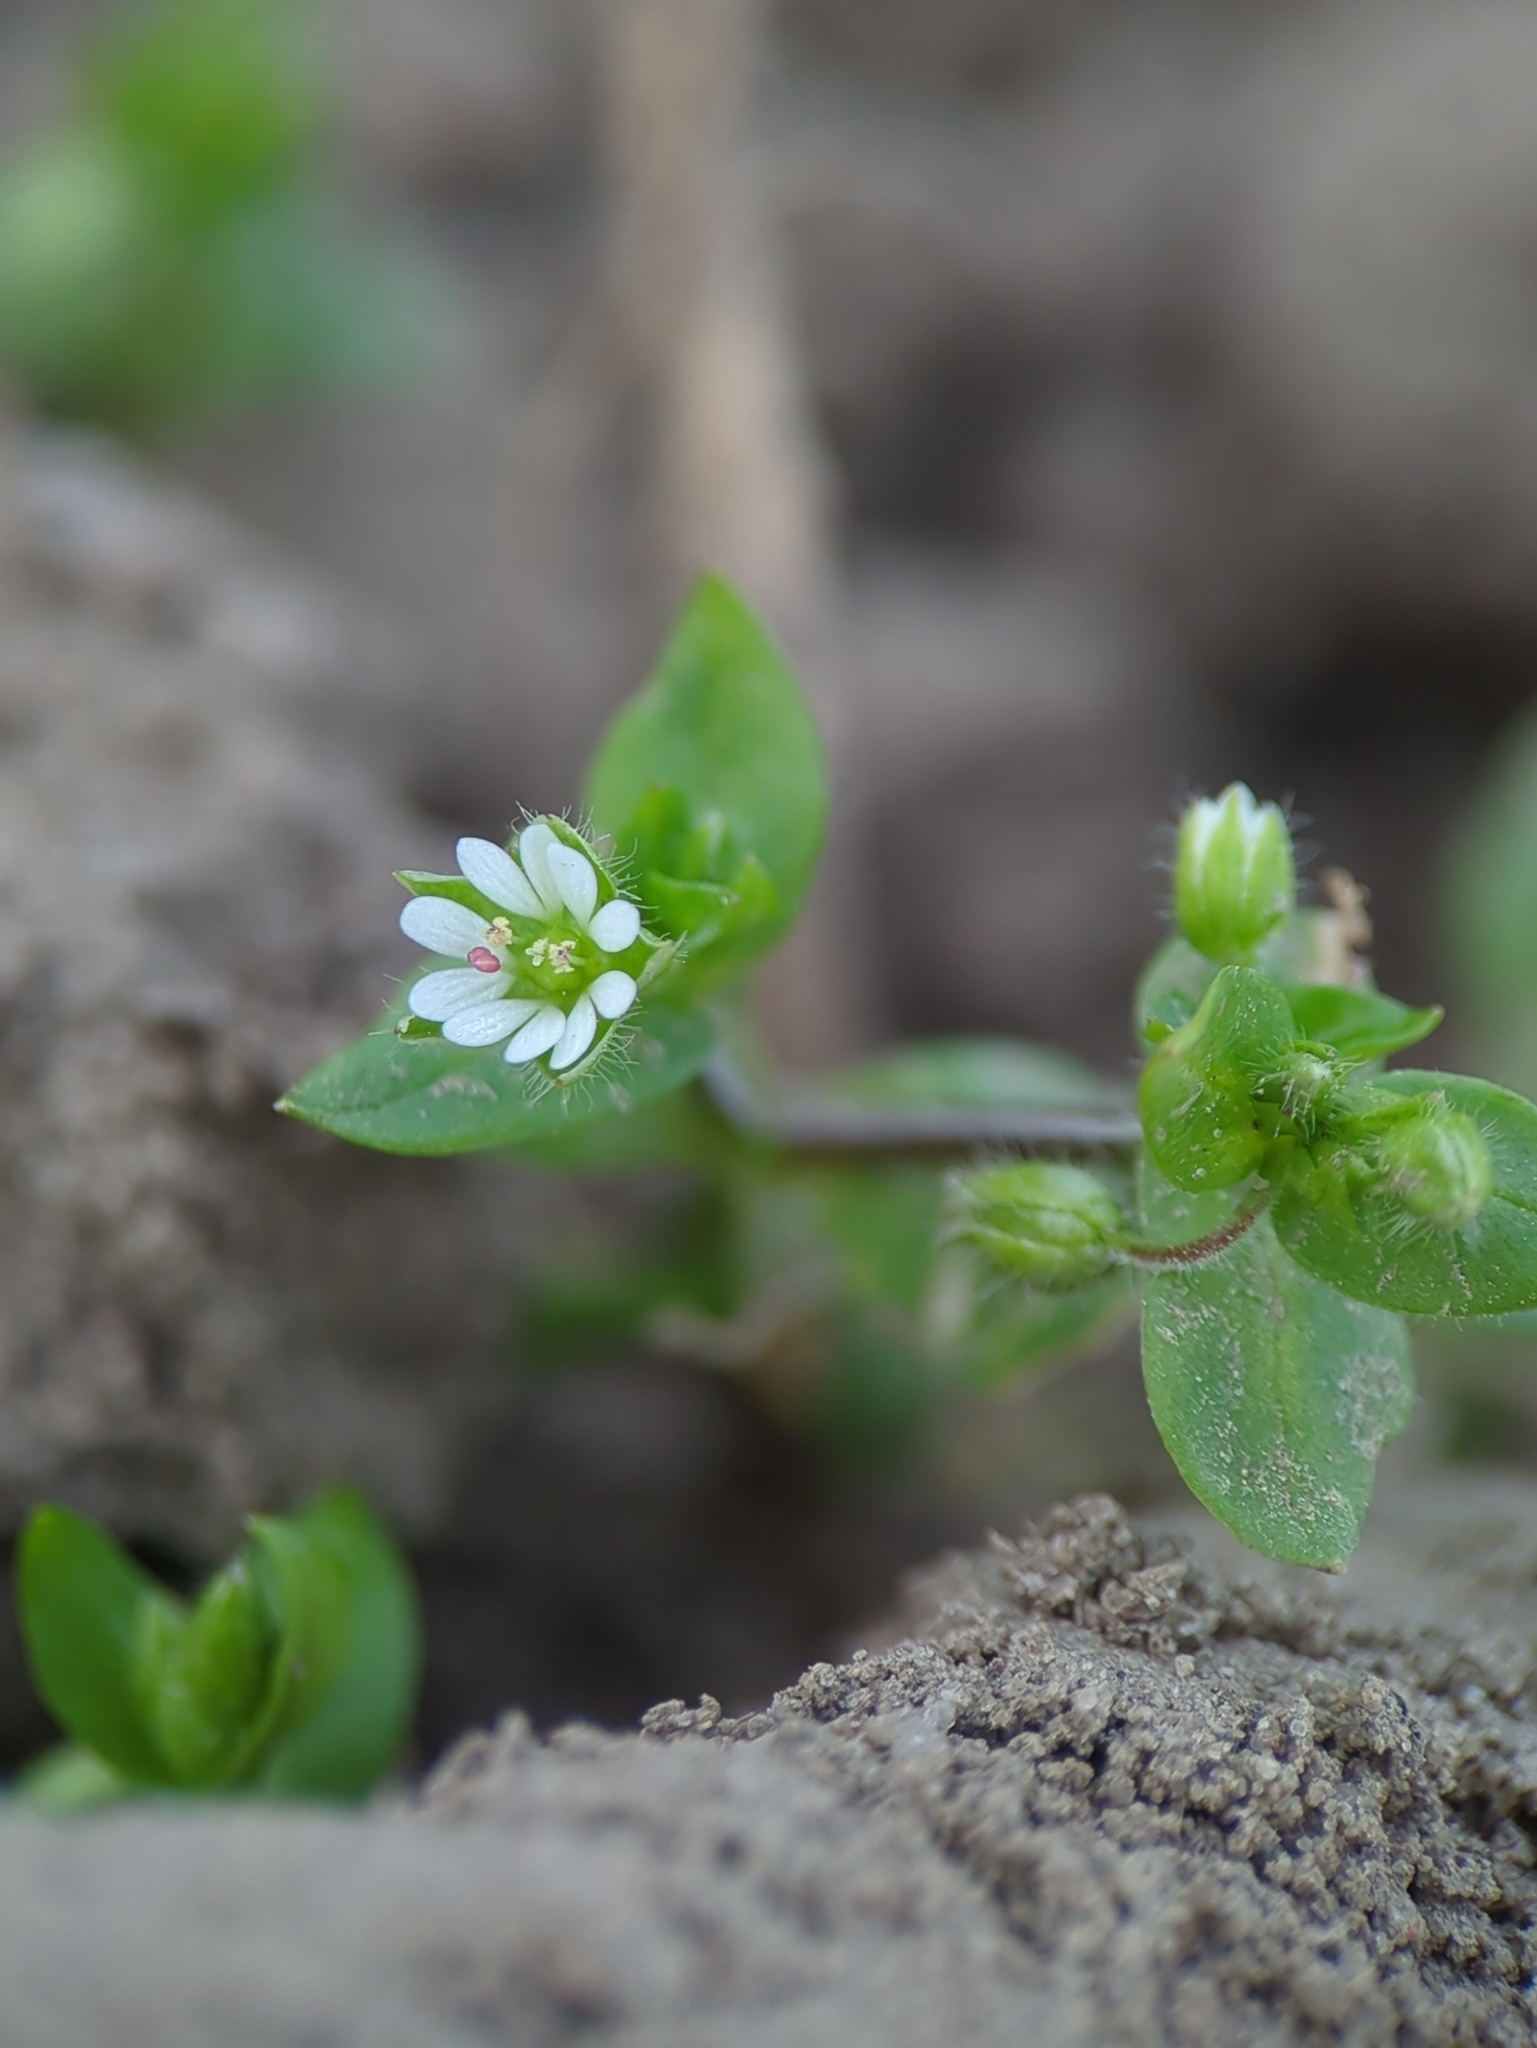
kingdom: Plantae
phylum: Tracheophyta
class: Magnoliopsida
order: Caryophyllales
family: Caryophyllaceae
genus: Stellaria
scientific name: Stellaria media
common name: Common chickweed
